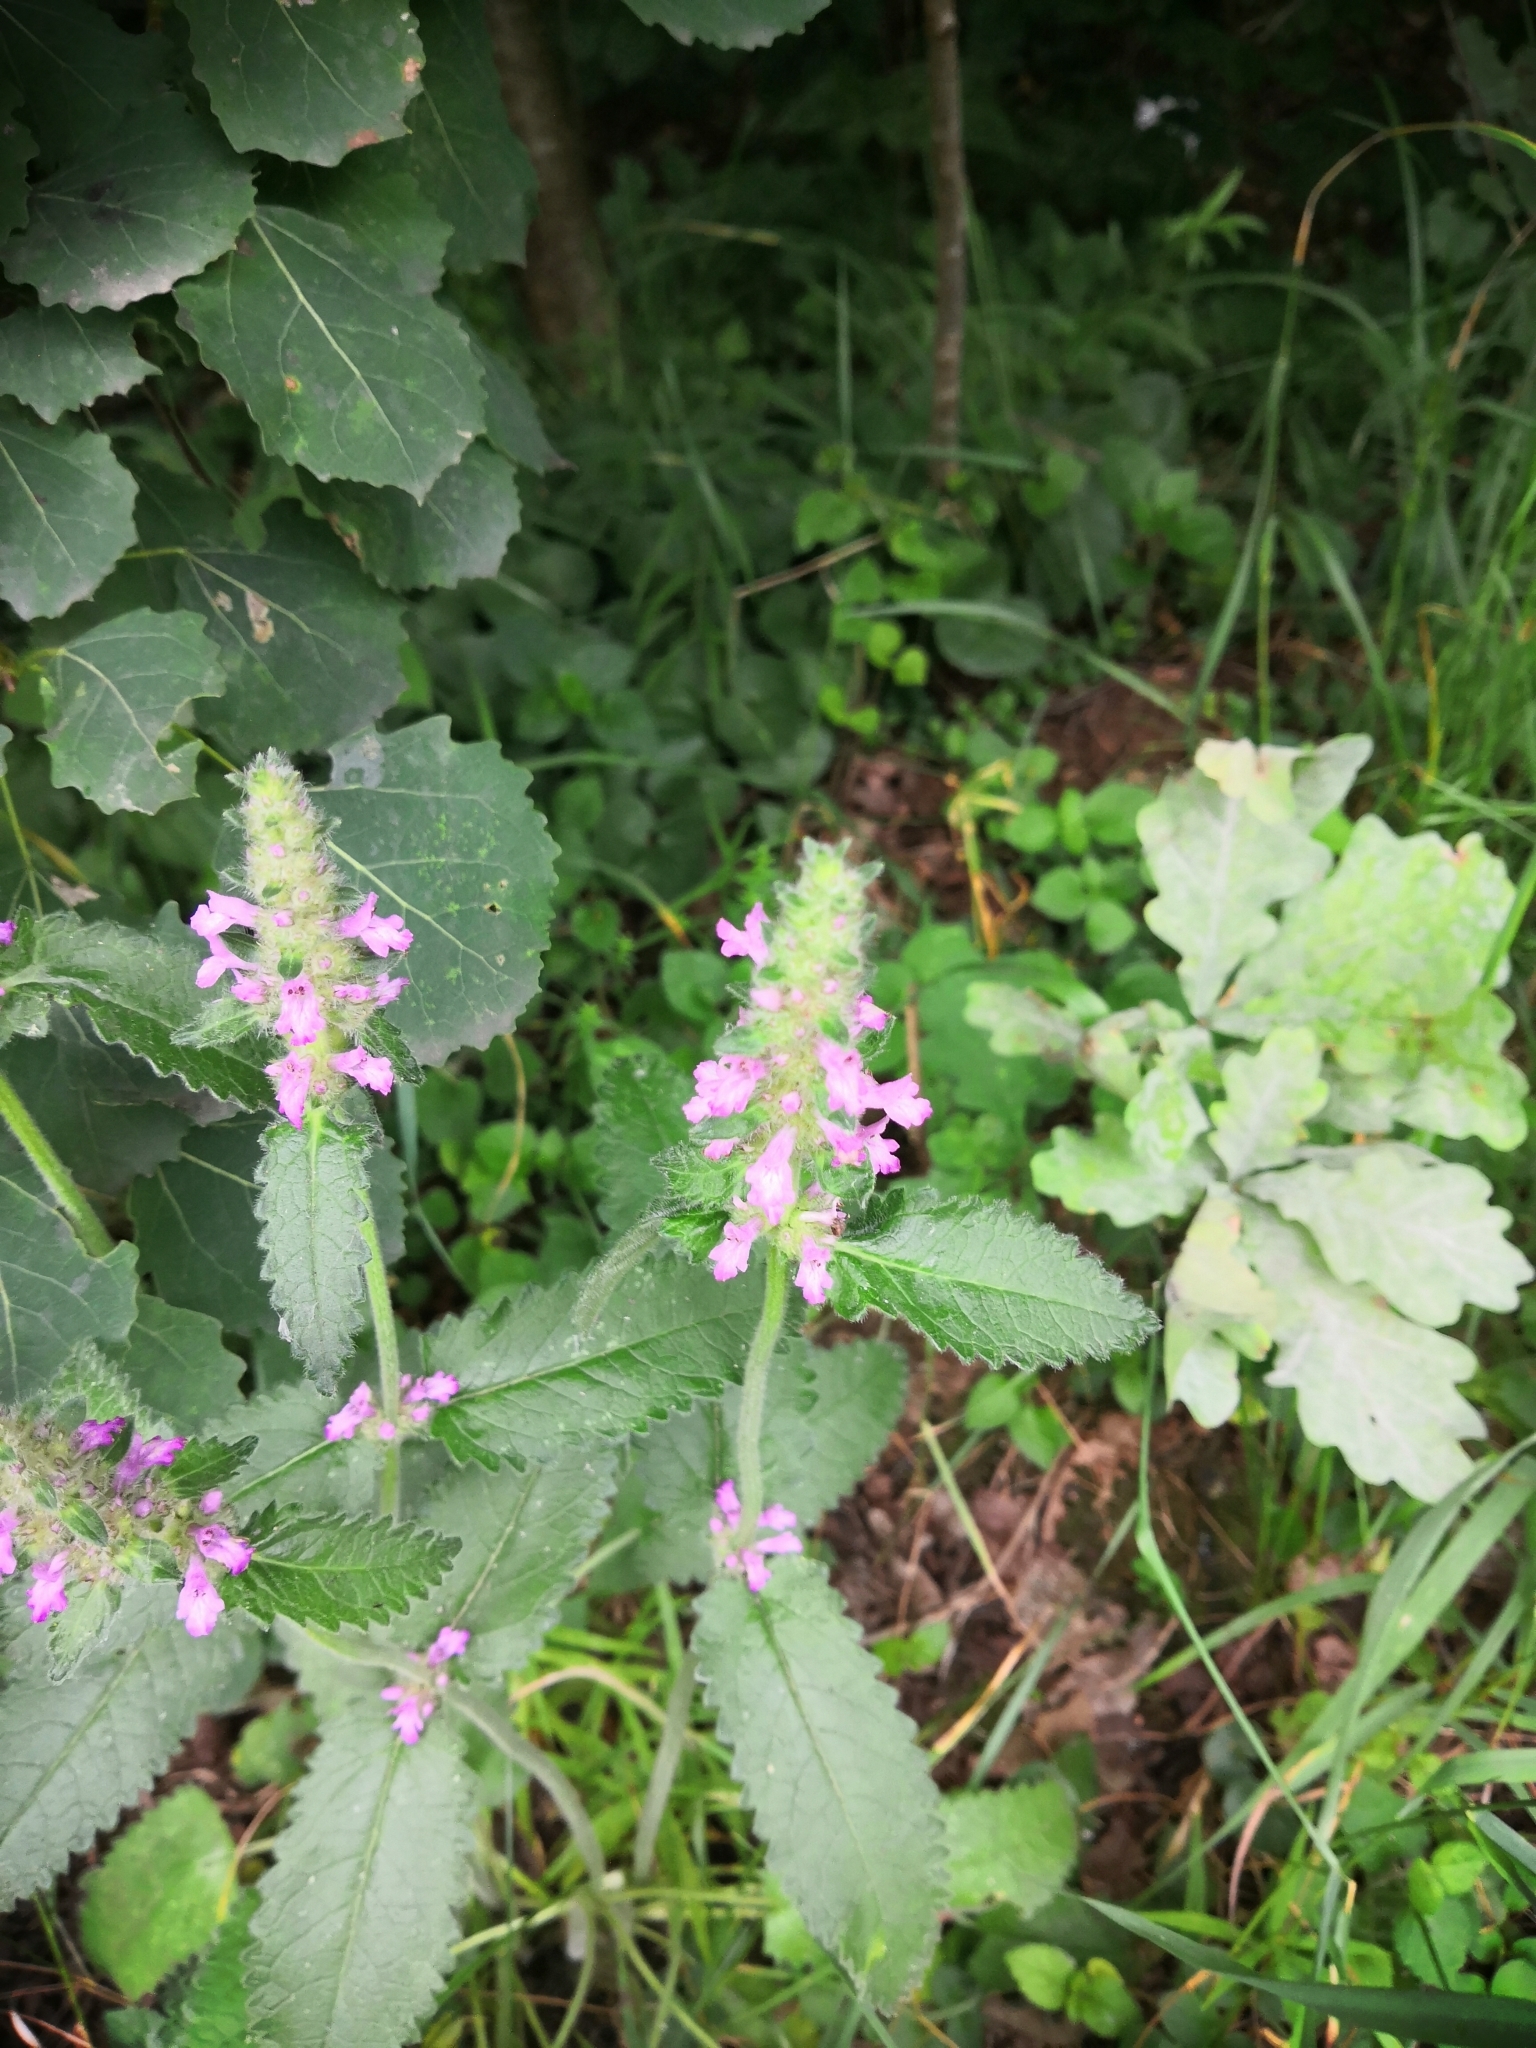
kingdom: Plantae
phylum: Tracheophyta
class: Magnoliopsida
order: Lamiales
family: Lamiaceae
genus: Betonica
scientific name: Betonica officinalis
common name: Bishop's-wort
